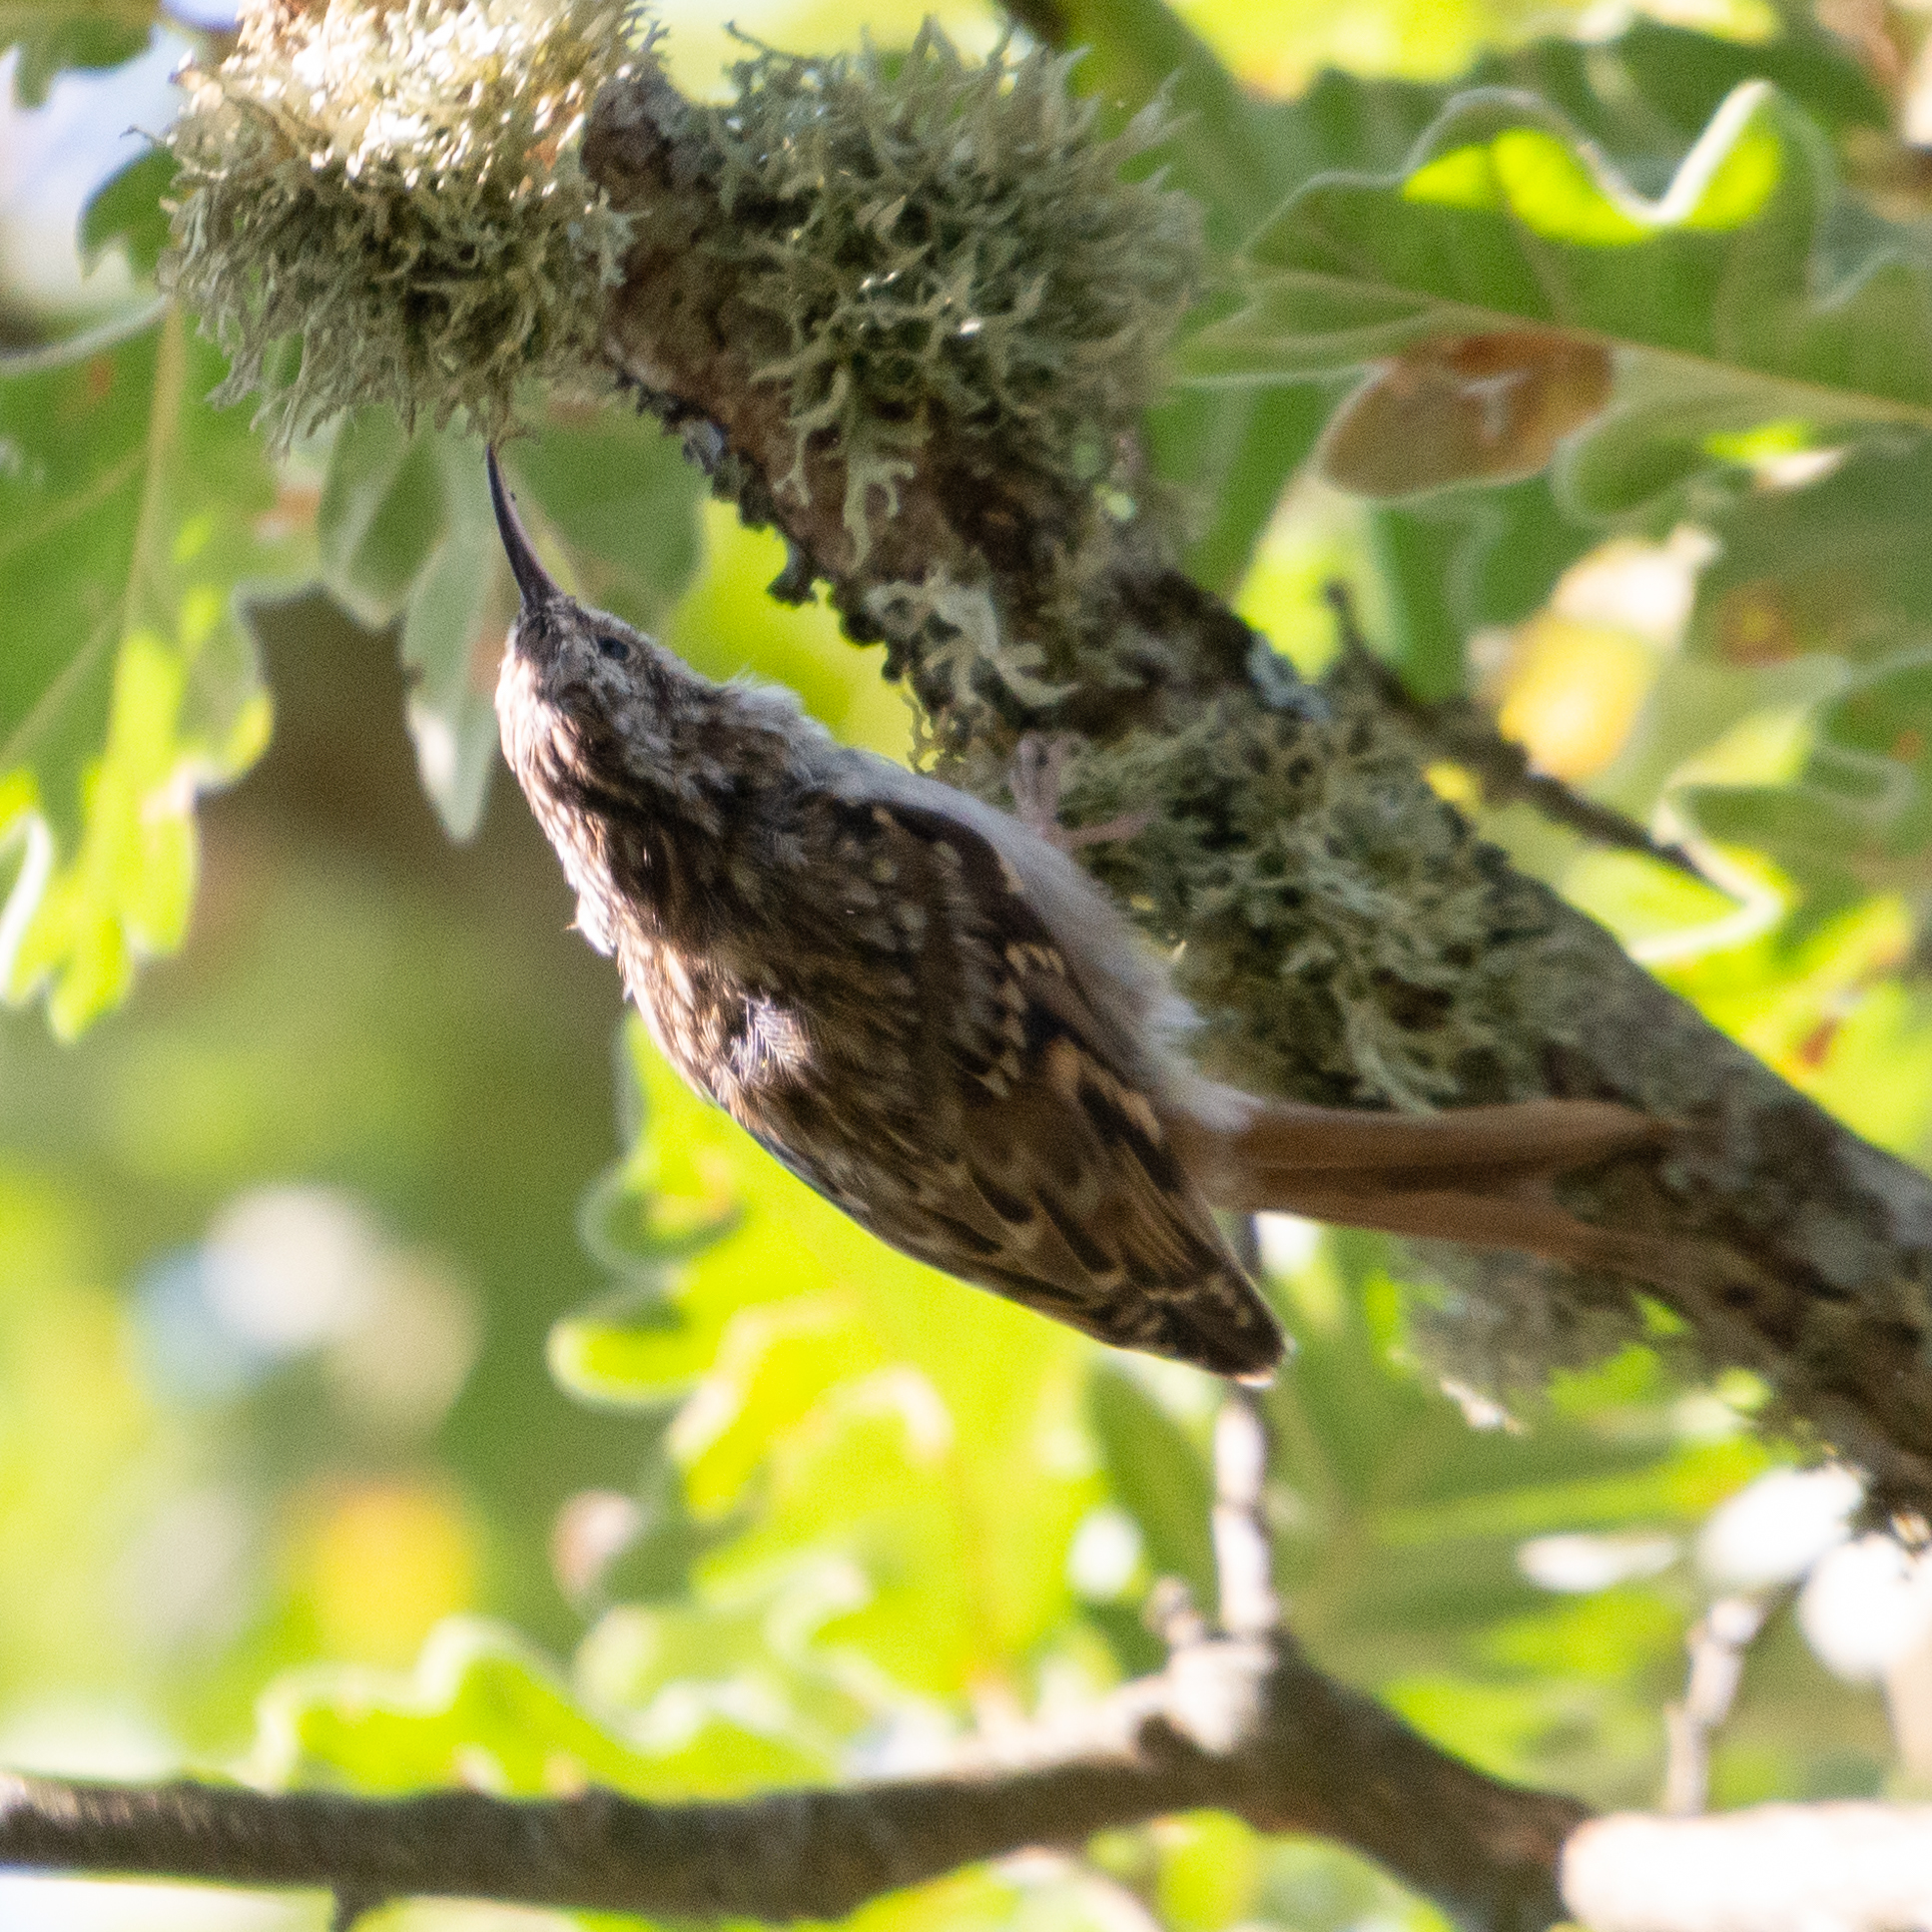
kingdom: Animalia
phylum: Chordata
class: Aves
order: Passeriformes
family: Certhiidae
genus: Certhia
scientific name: Certhia brachydactyla
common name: Short-toed treecreeper
